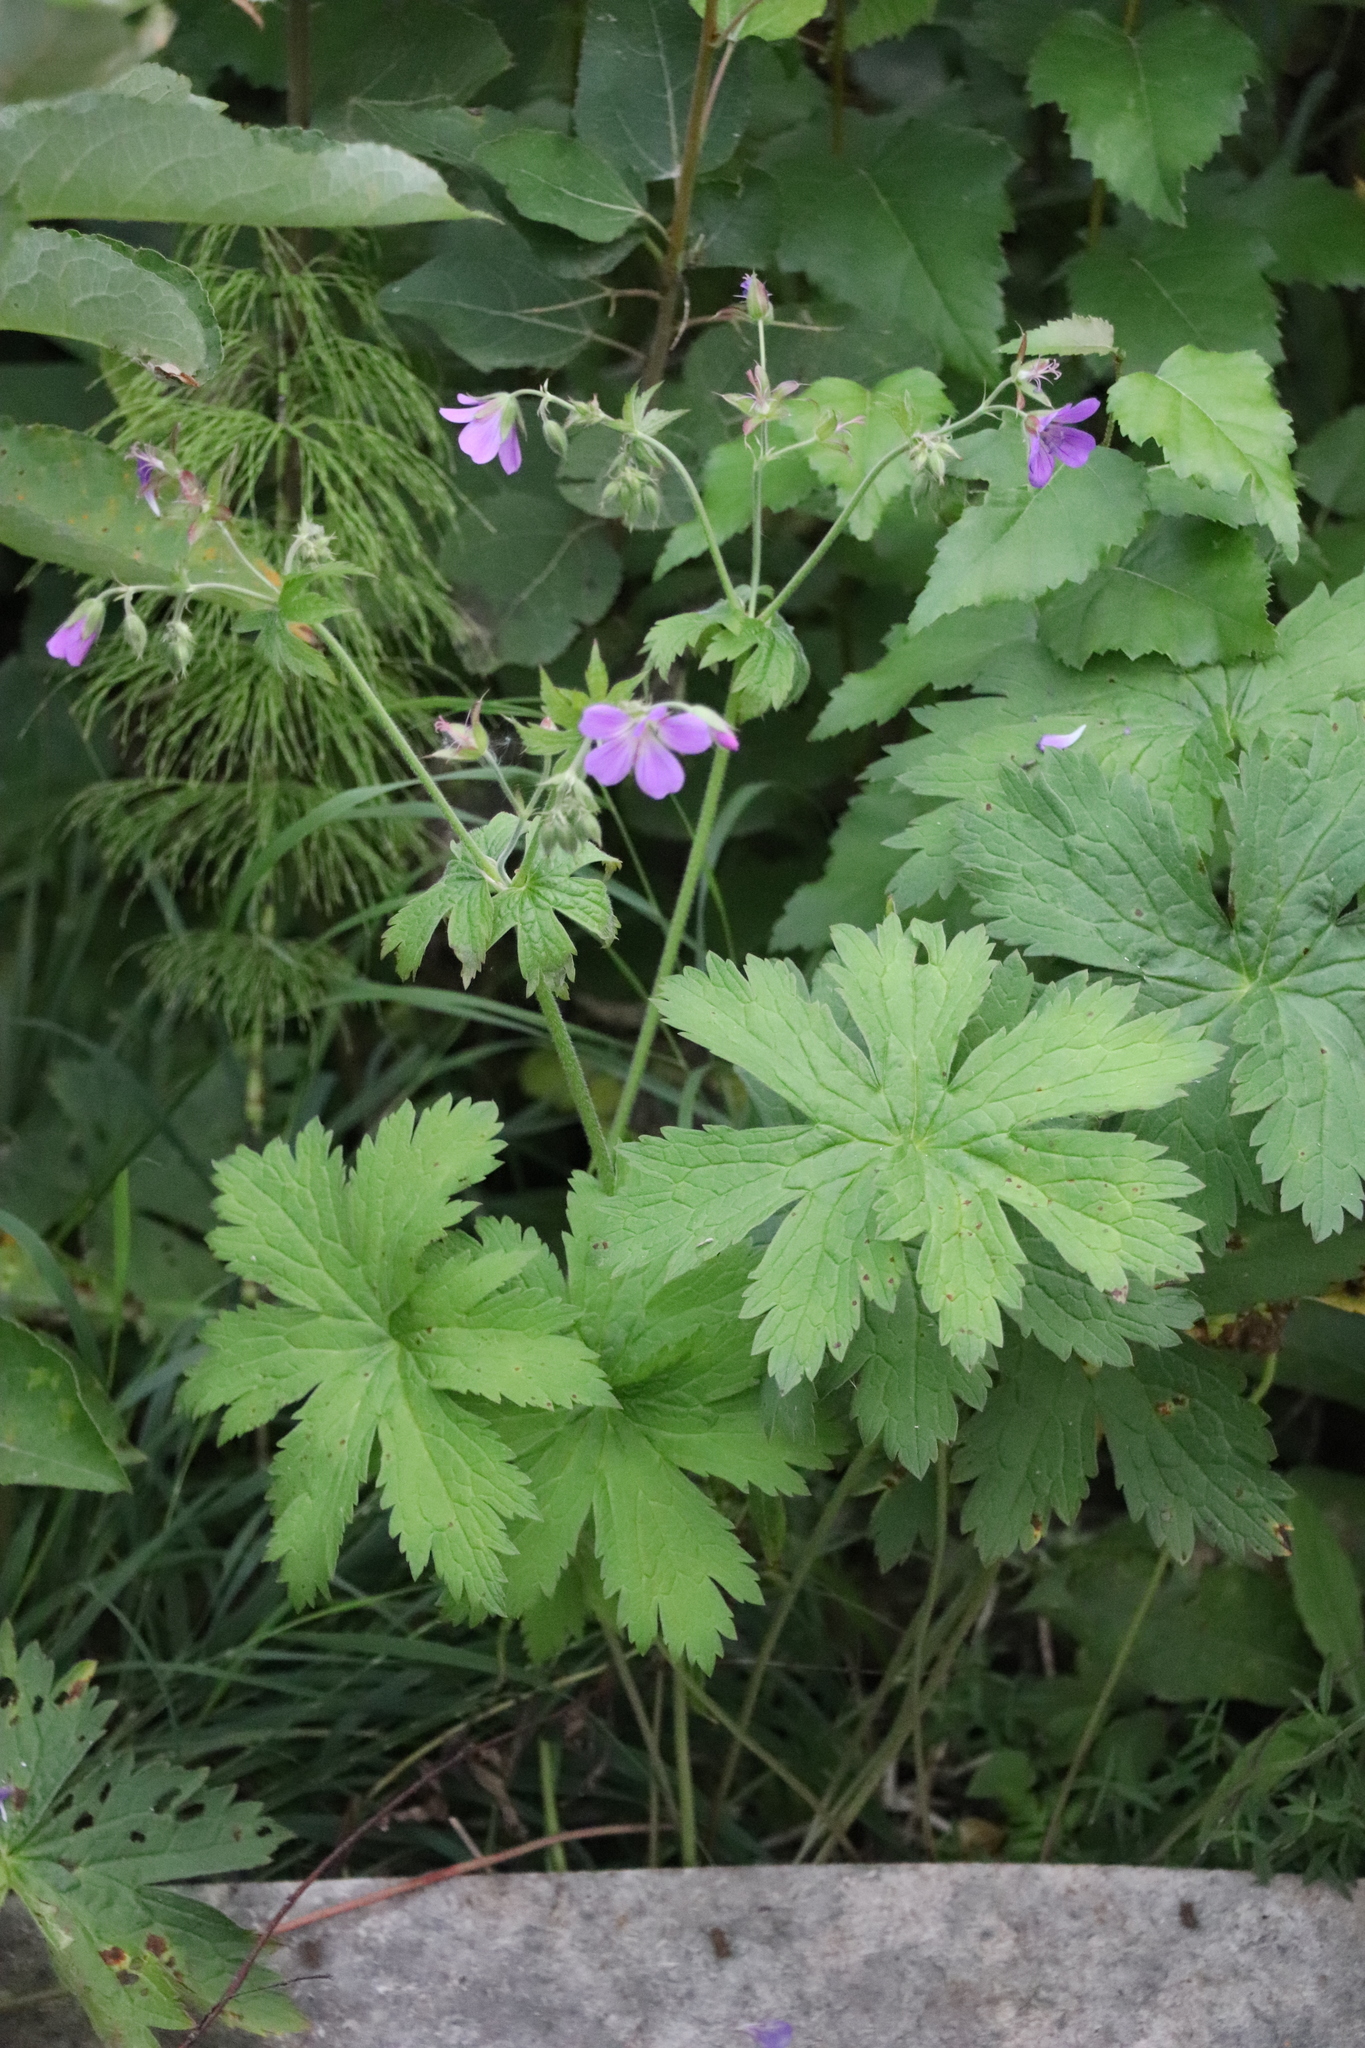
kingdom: Plantae
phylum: Tracheophyta
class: Magnoliopsida
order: Geraniales
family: Geraniaceae
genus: Geranium
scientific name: Geranium sylvaticum
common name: Wood crane's-bill
